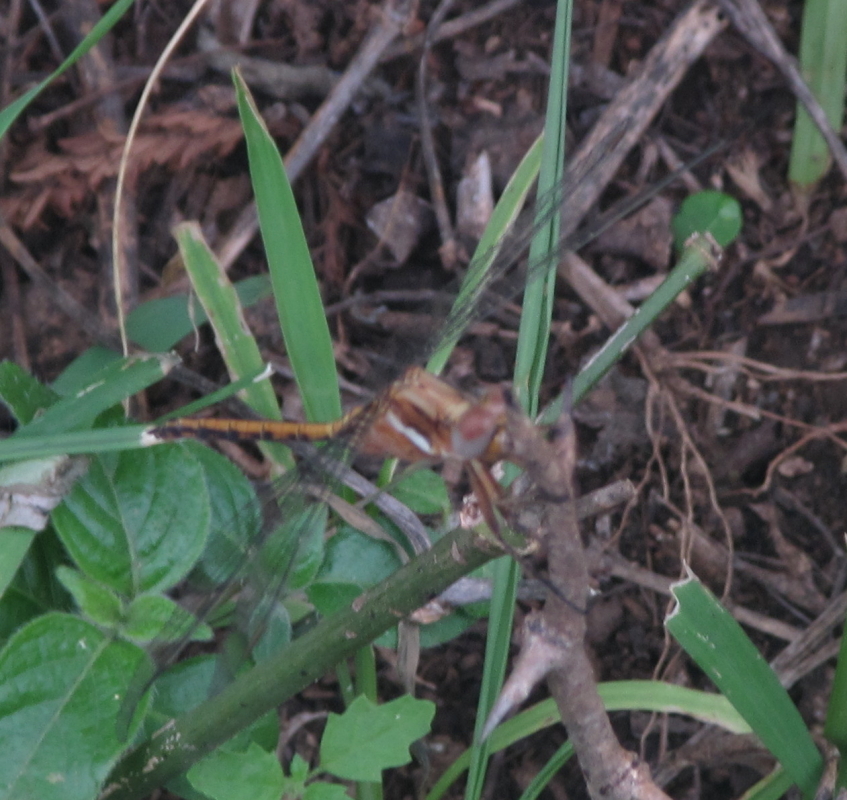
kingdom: Animalia
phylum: Arthropoda
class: Insecta
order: Odonata
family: Libellulidae
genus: Orthetrum
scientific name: Orthetrum chrysostigma
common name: Epaulet skimmer
